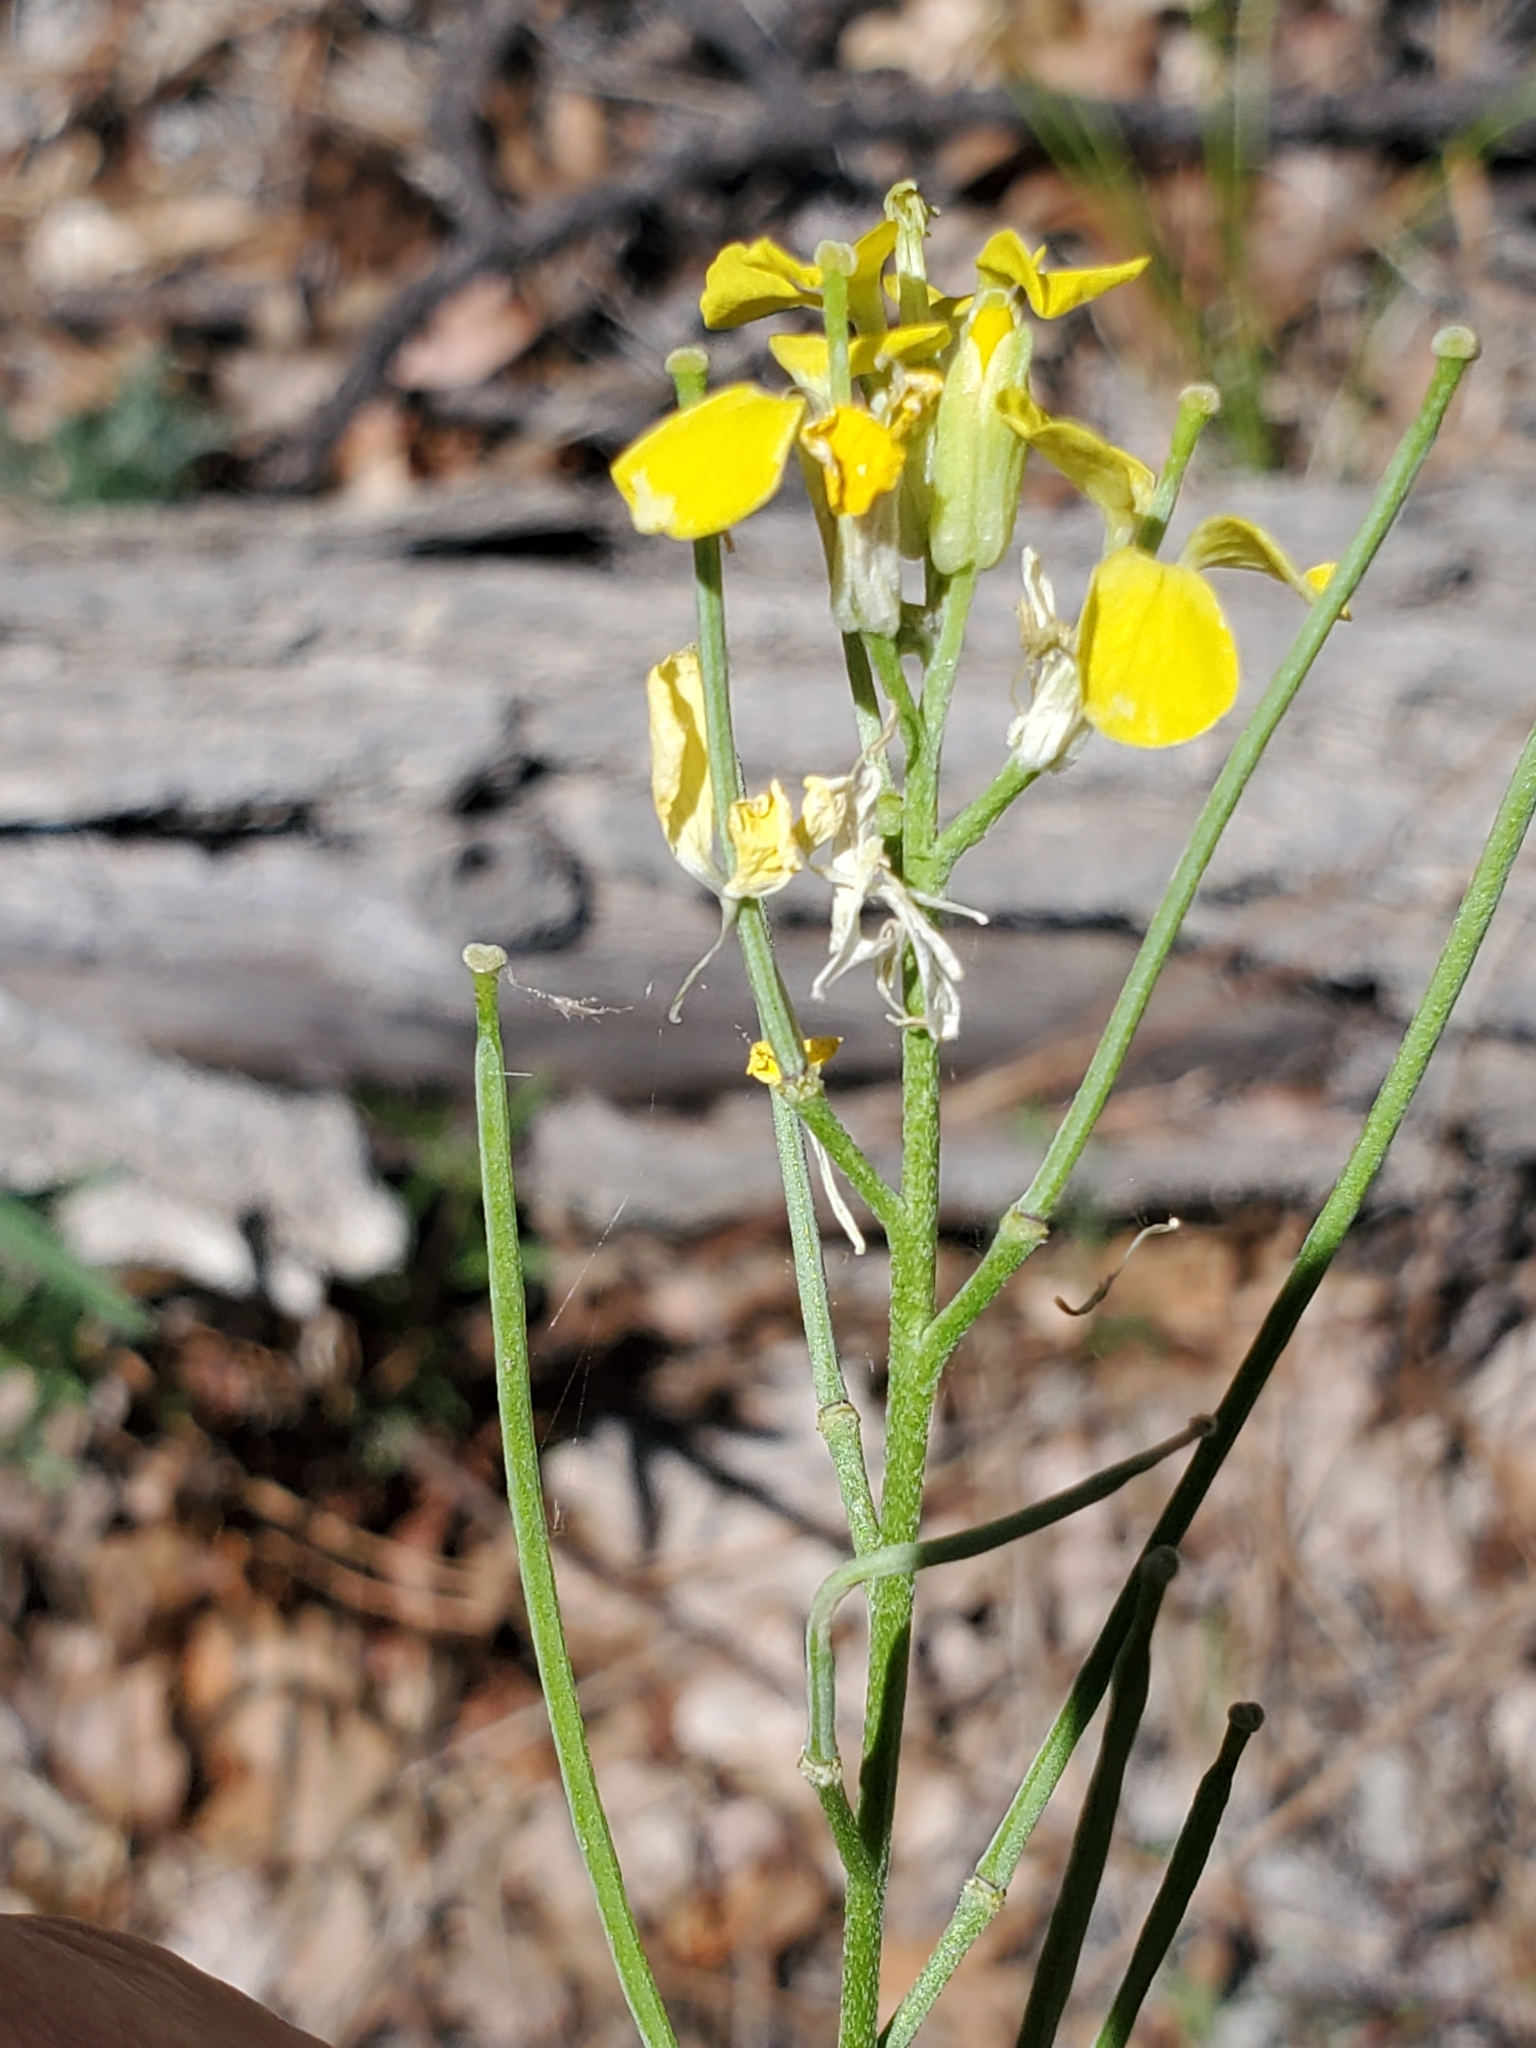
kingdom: Plantae
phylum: Tracheophyta
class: Magnoliopsida
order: Brassicales
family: Brassicaceae
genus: Erysimum
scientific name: Erysimum capitatum
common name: Western wallflower
